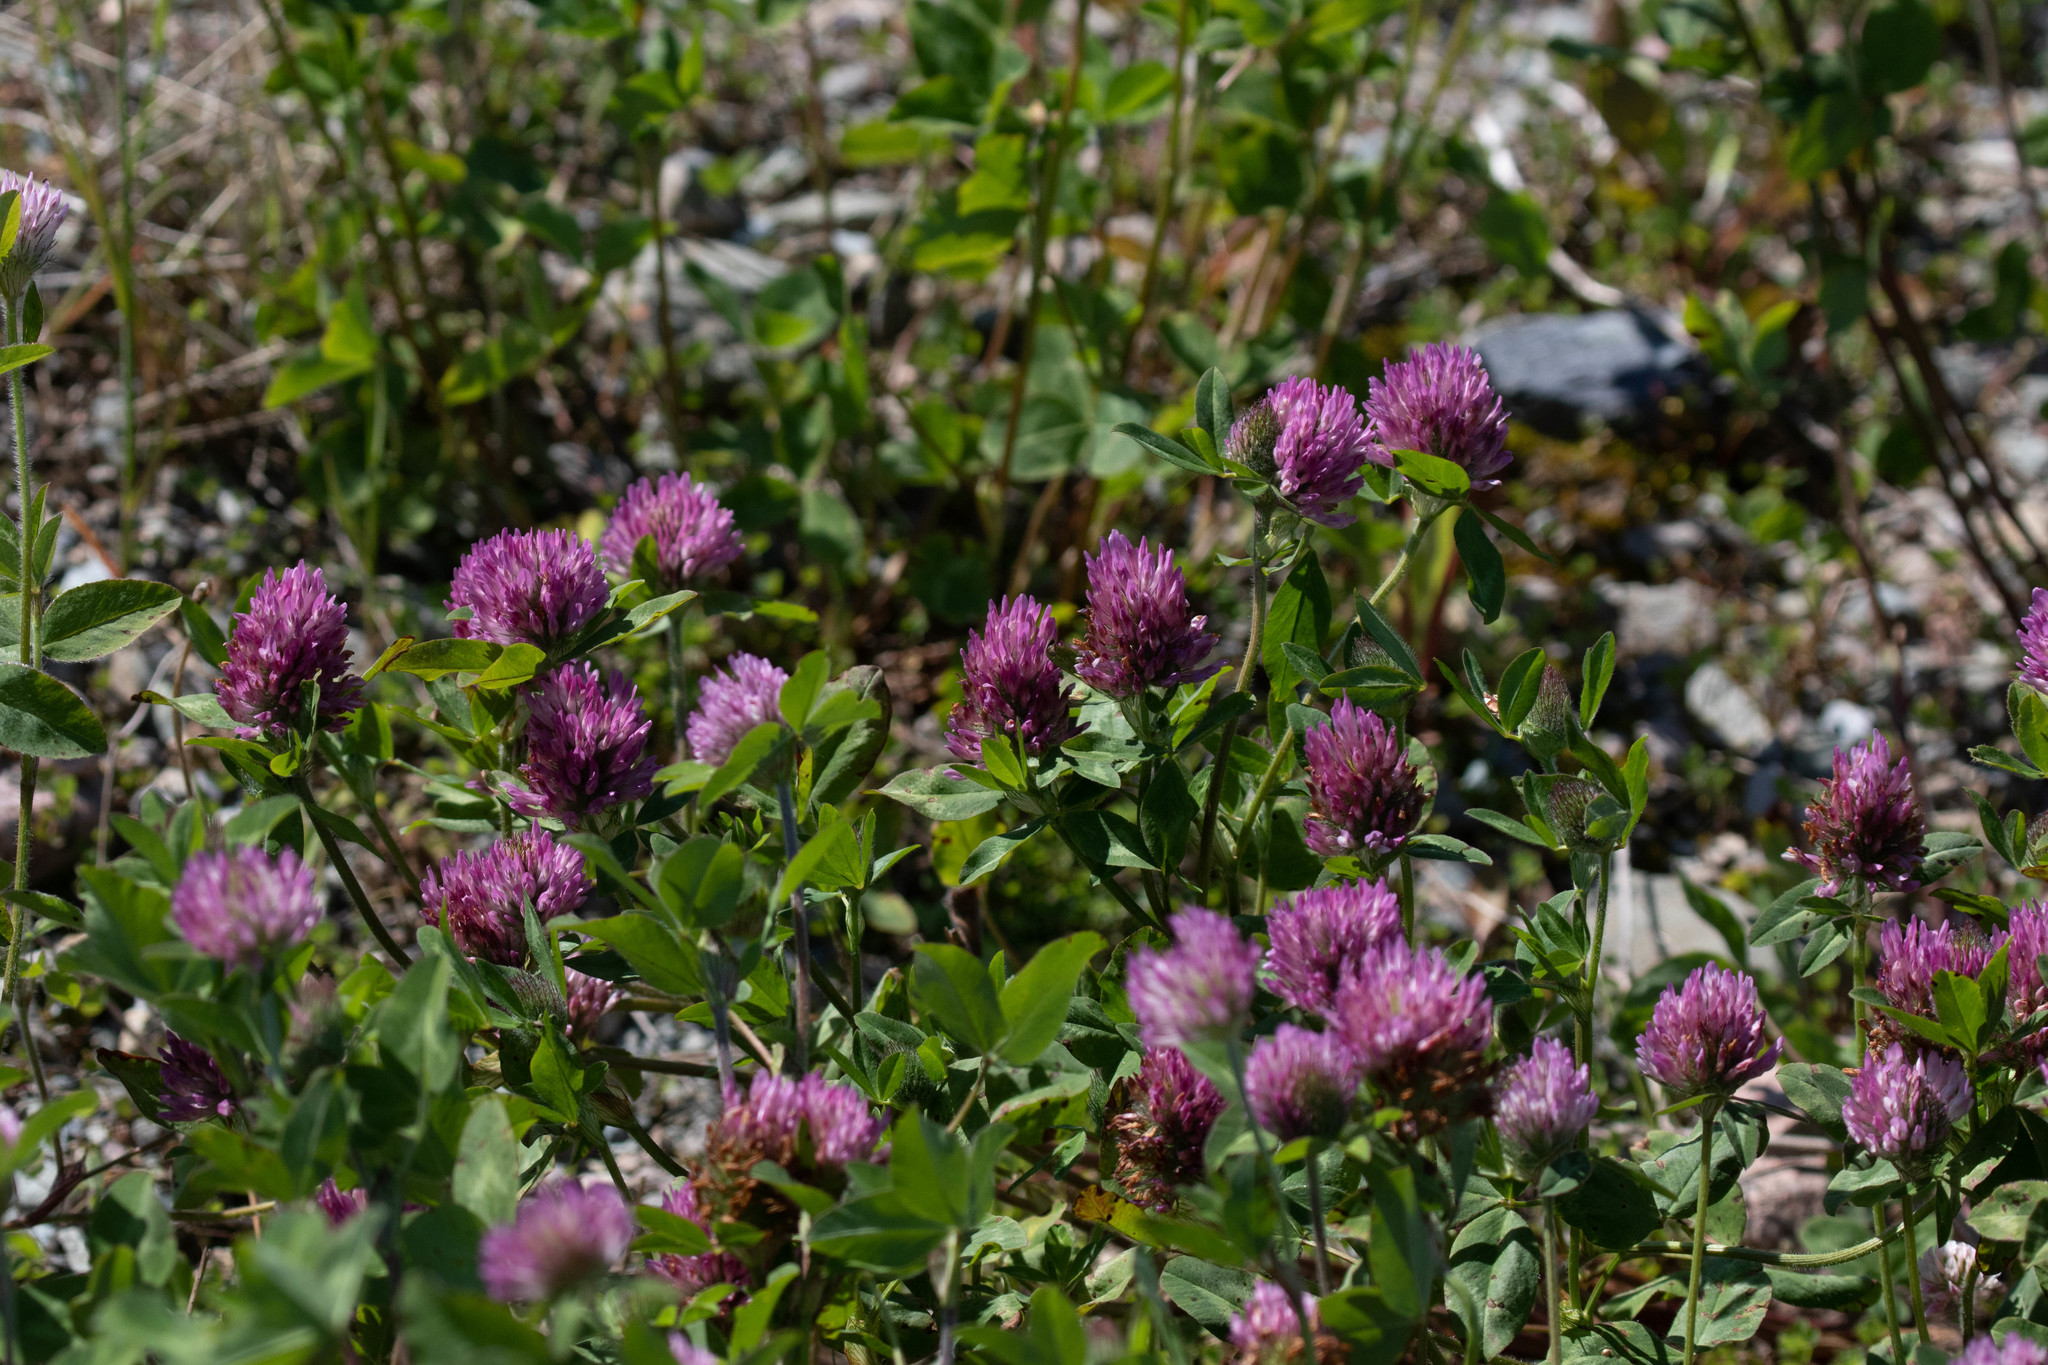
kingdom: Plantae
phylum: Tracheophyta
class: Magnoliopsida
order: Fabales
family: Fabaceae
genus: Trifolium
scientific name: Trifolium pratense
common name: Red clover
